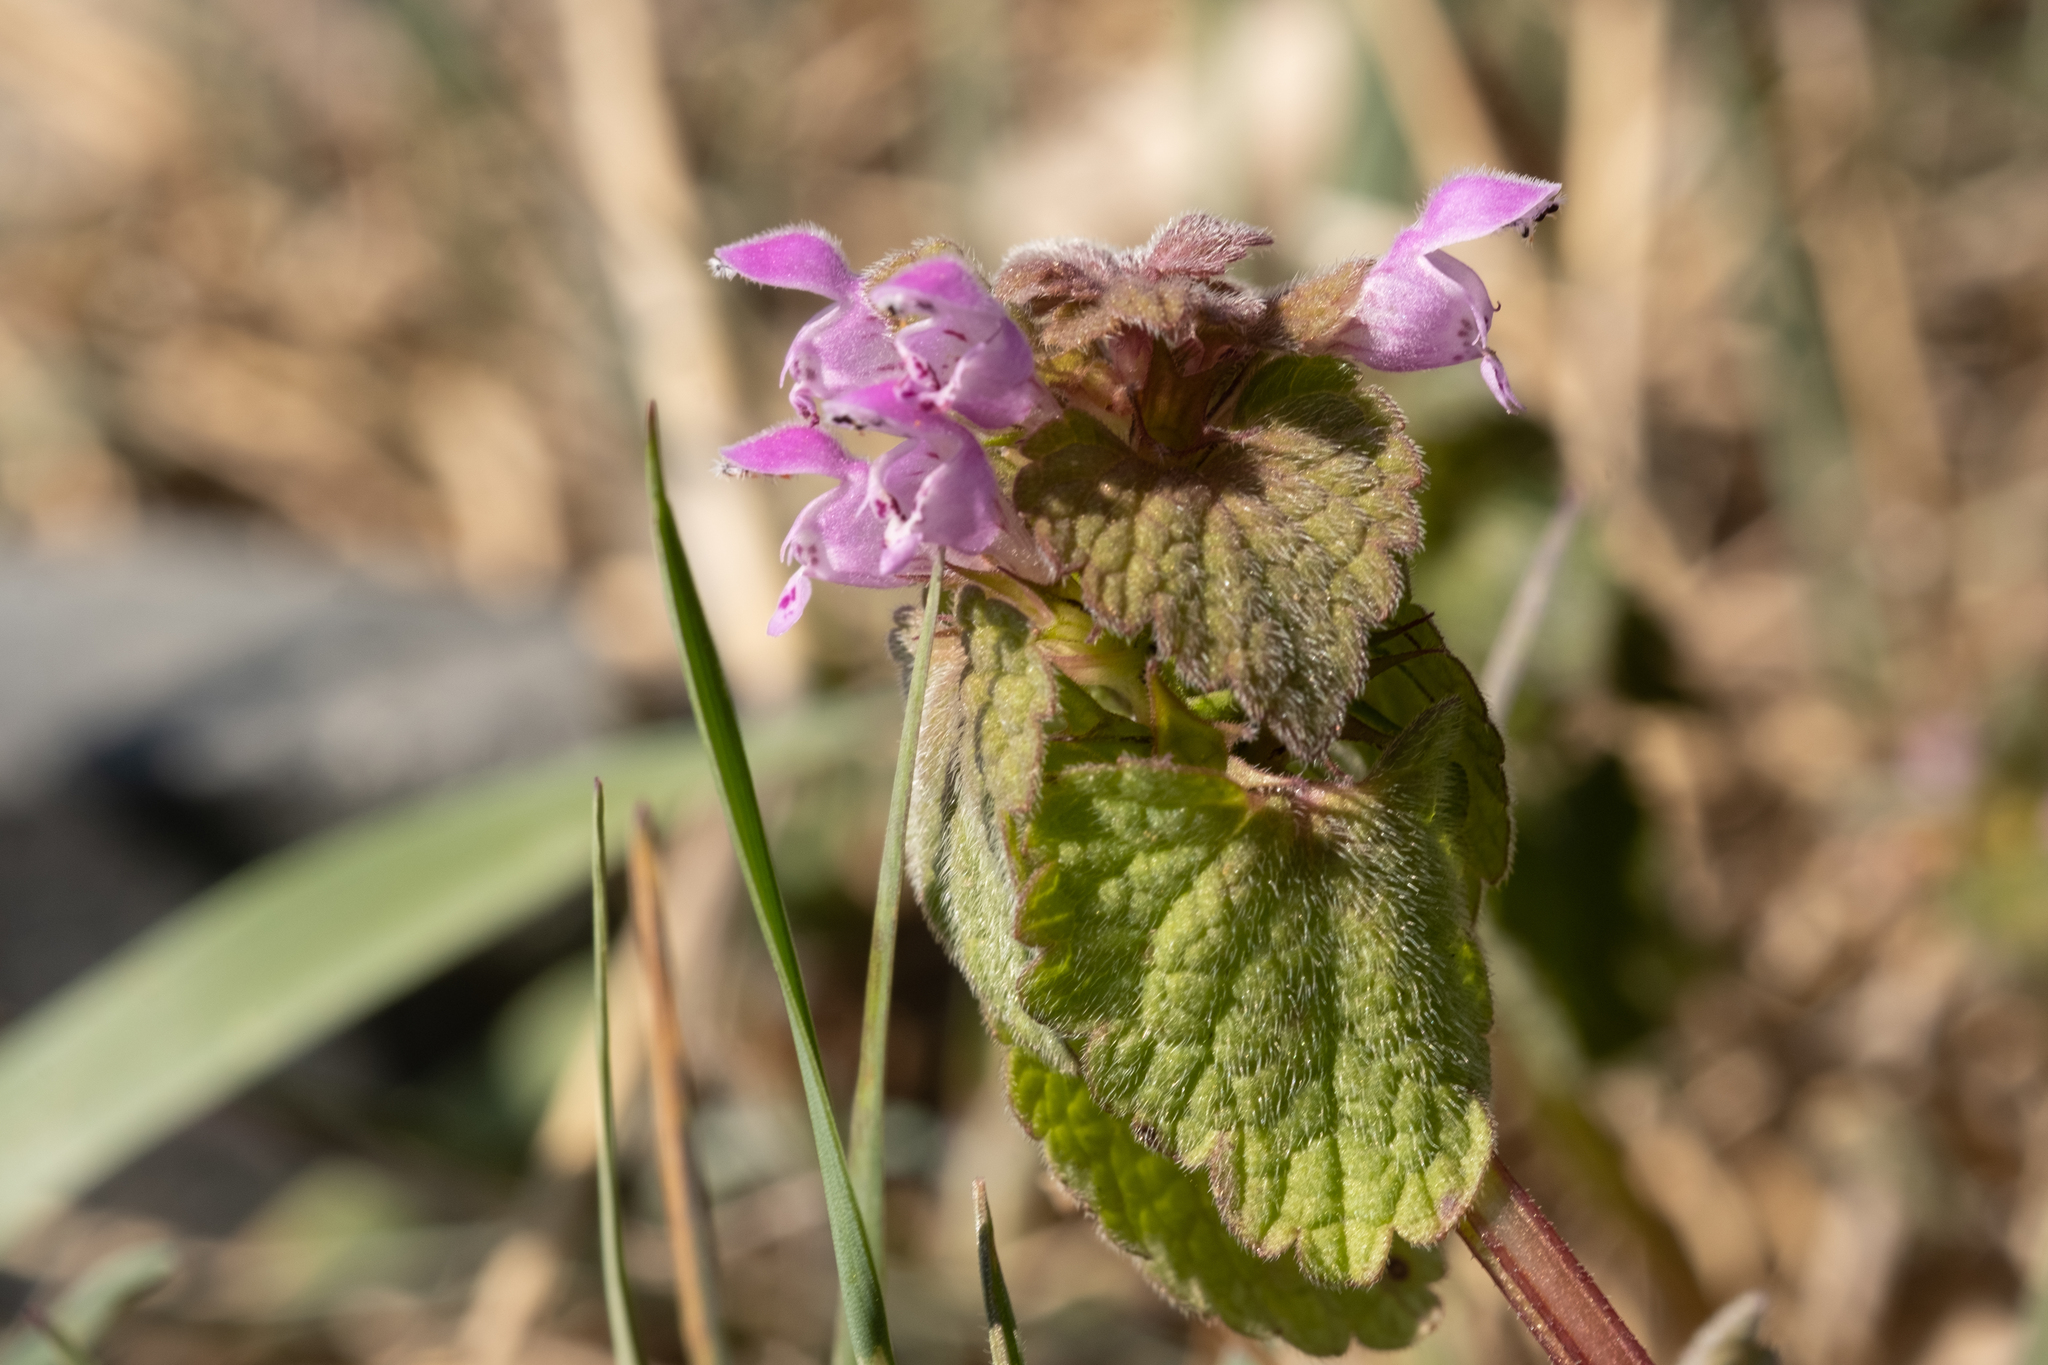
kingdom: Plantae
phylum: Tracheophyta
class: Magnoliopsida
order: Lamiales
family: Lamiaceae
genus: Lamium
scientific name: Lamium purpureum
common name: Red dead-nettle
